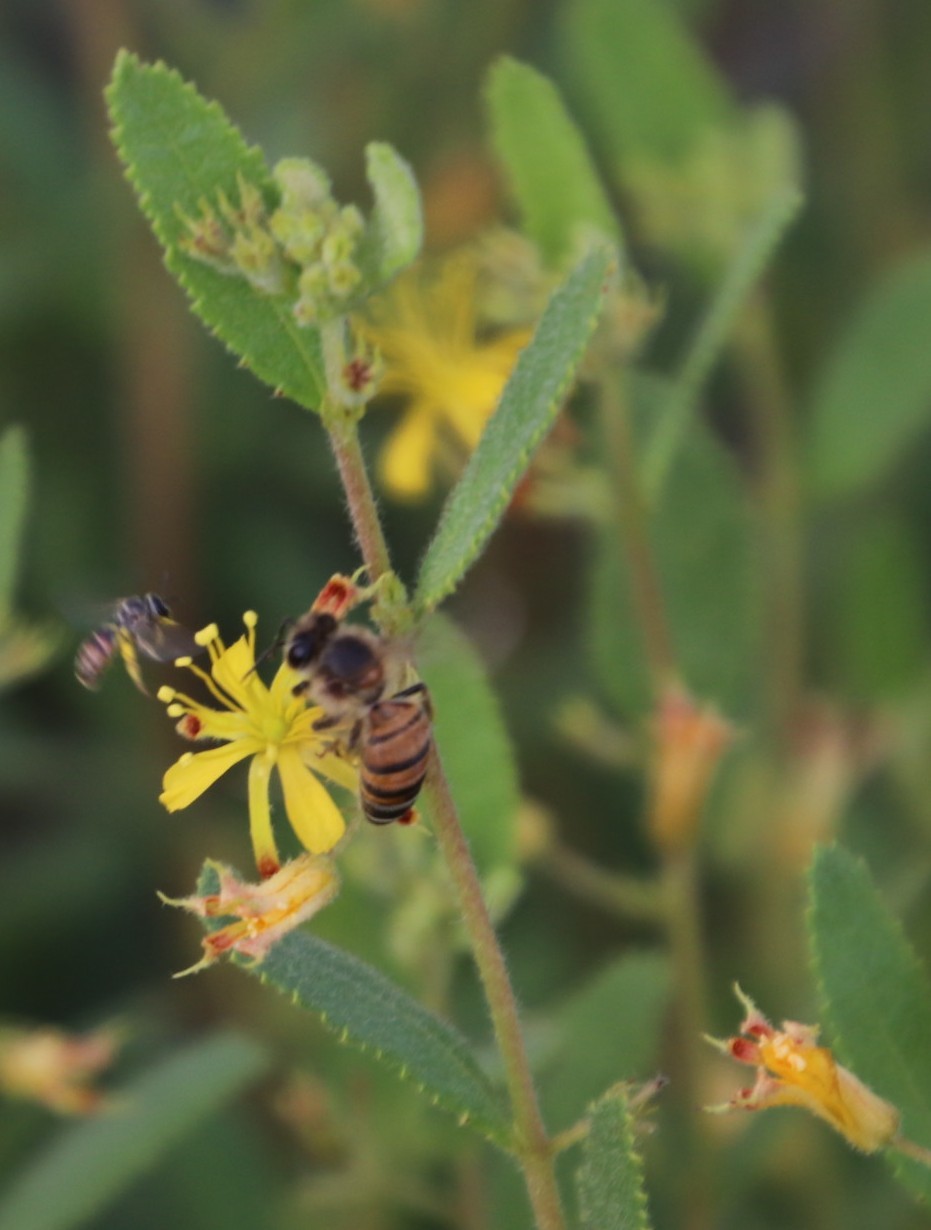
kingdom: Animalia
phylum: Arthropoda
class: Insecta
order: Hymenoptera
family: Apidae
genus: Apis
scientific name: Apis mellifera
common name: Honey bee
